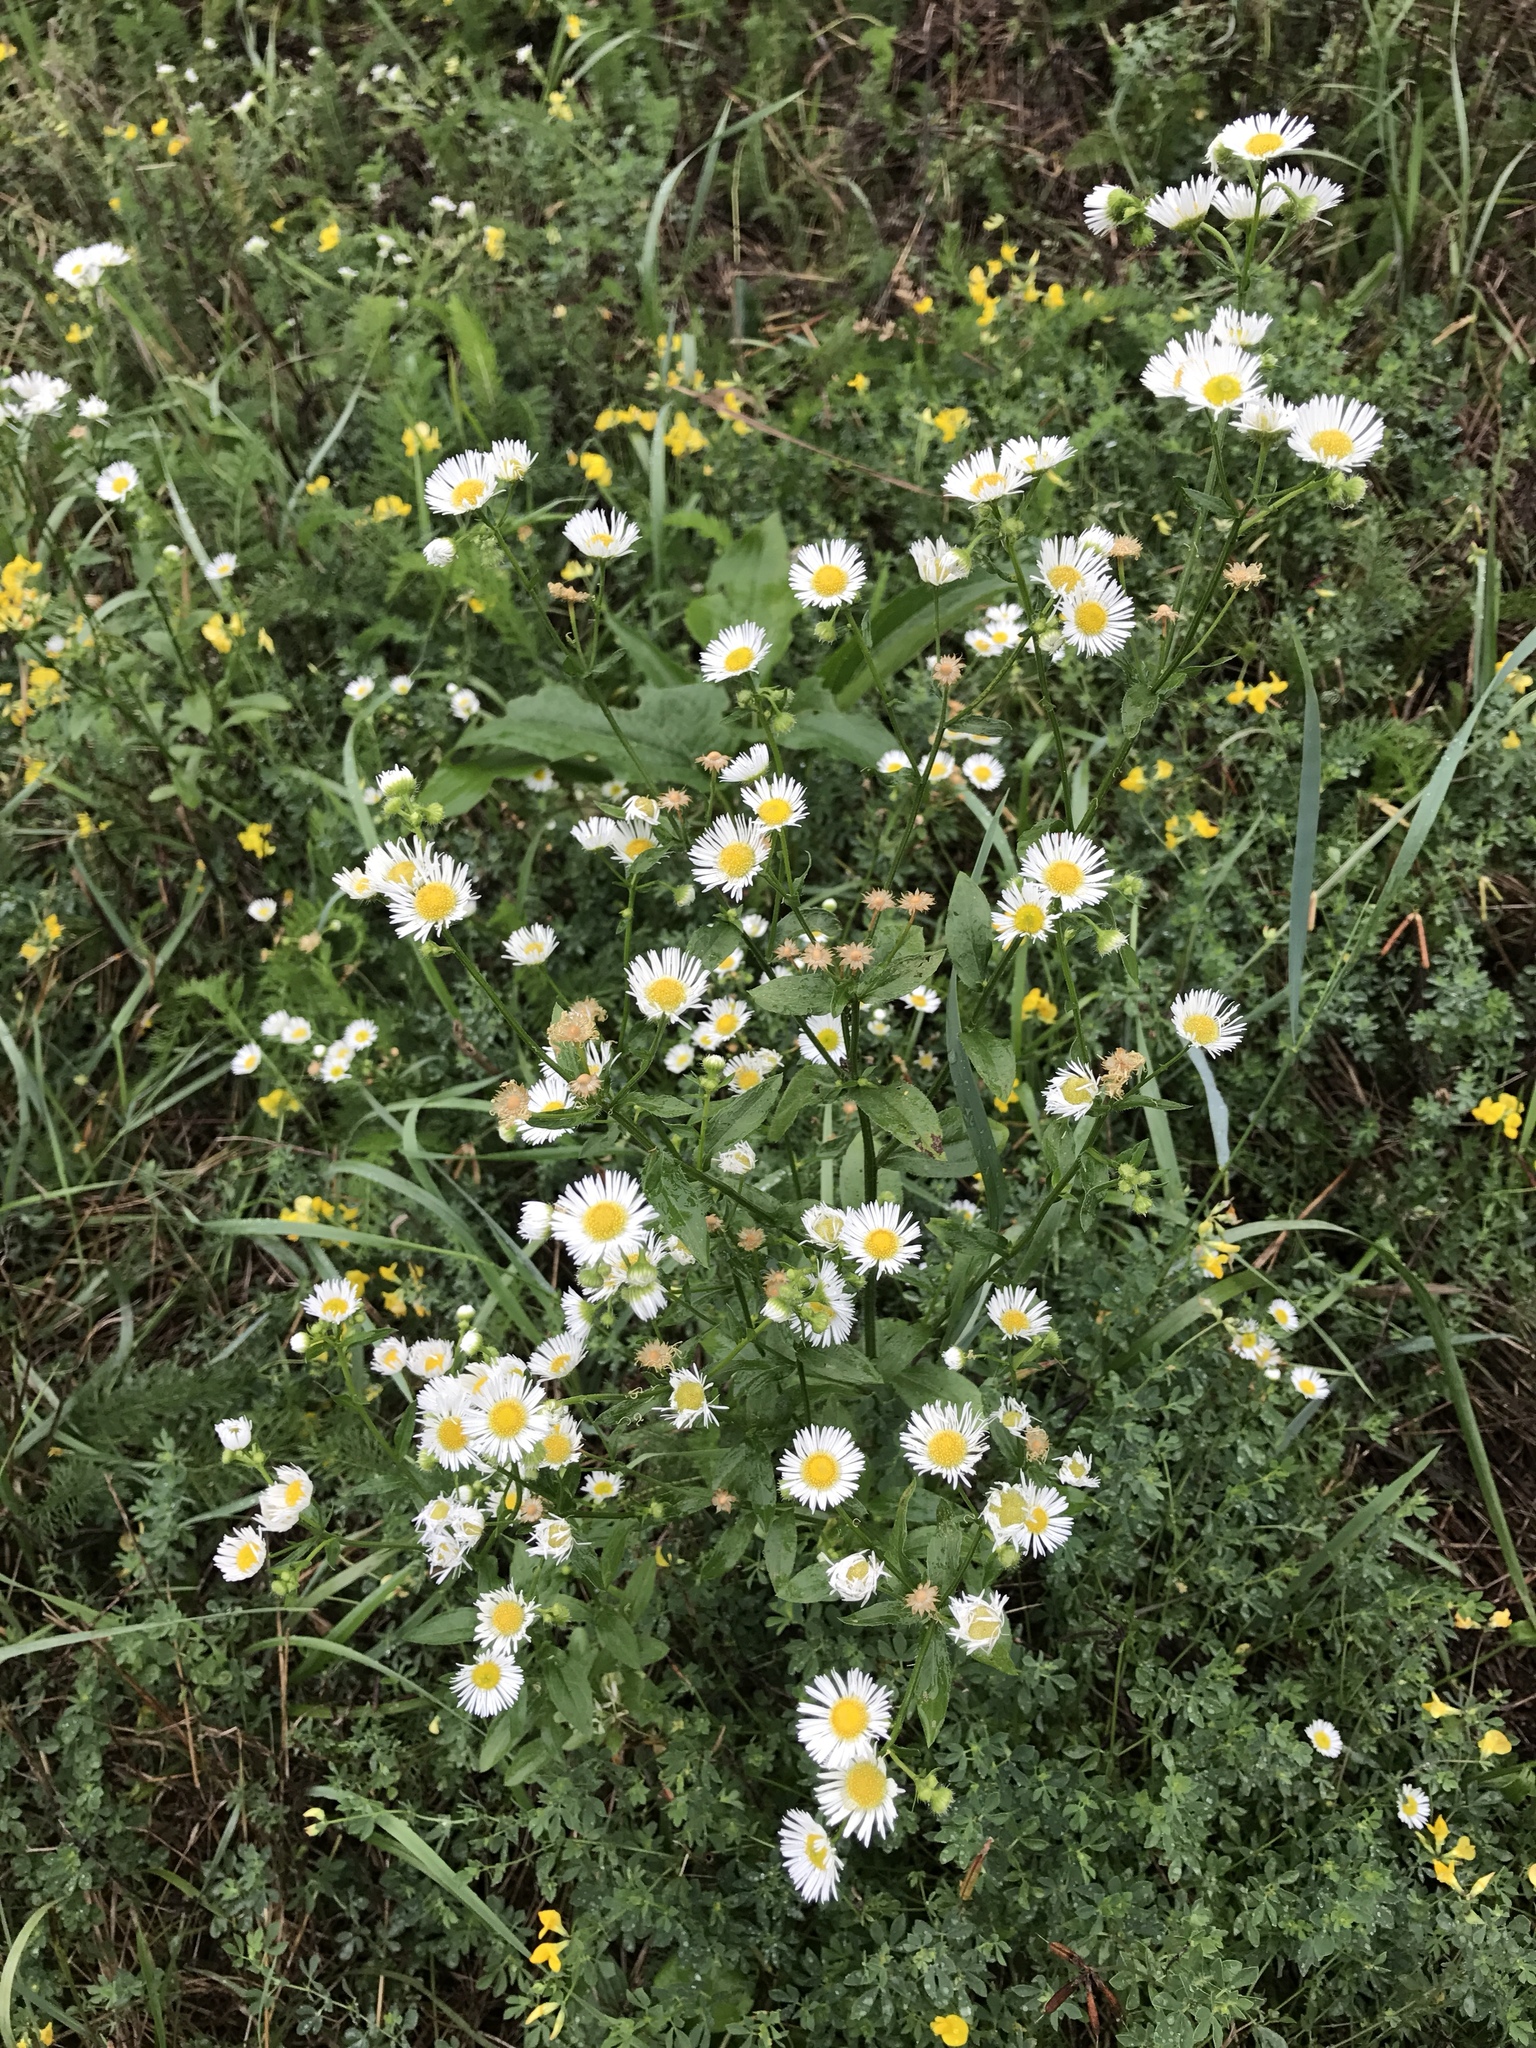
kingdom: Plantae
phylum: Tracheophyta
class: Magnoliopsida
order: Asterales
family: Asteraceae
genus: Erigeron
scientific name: Erigeron annuus
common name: Tall fleabane
